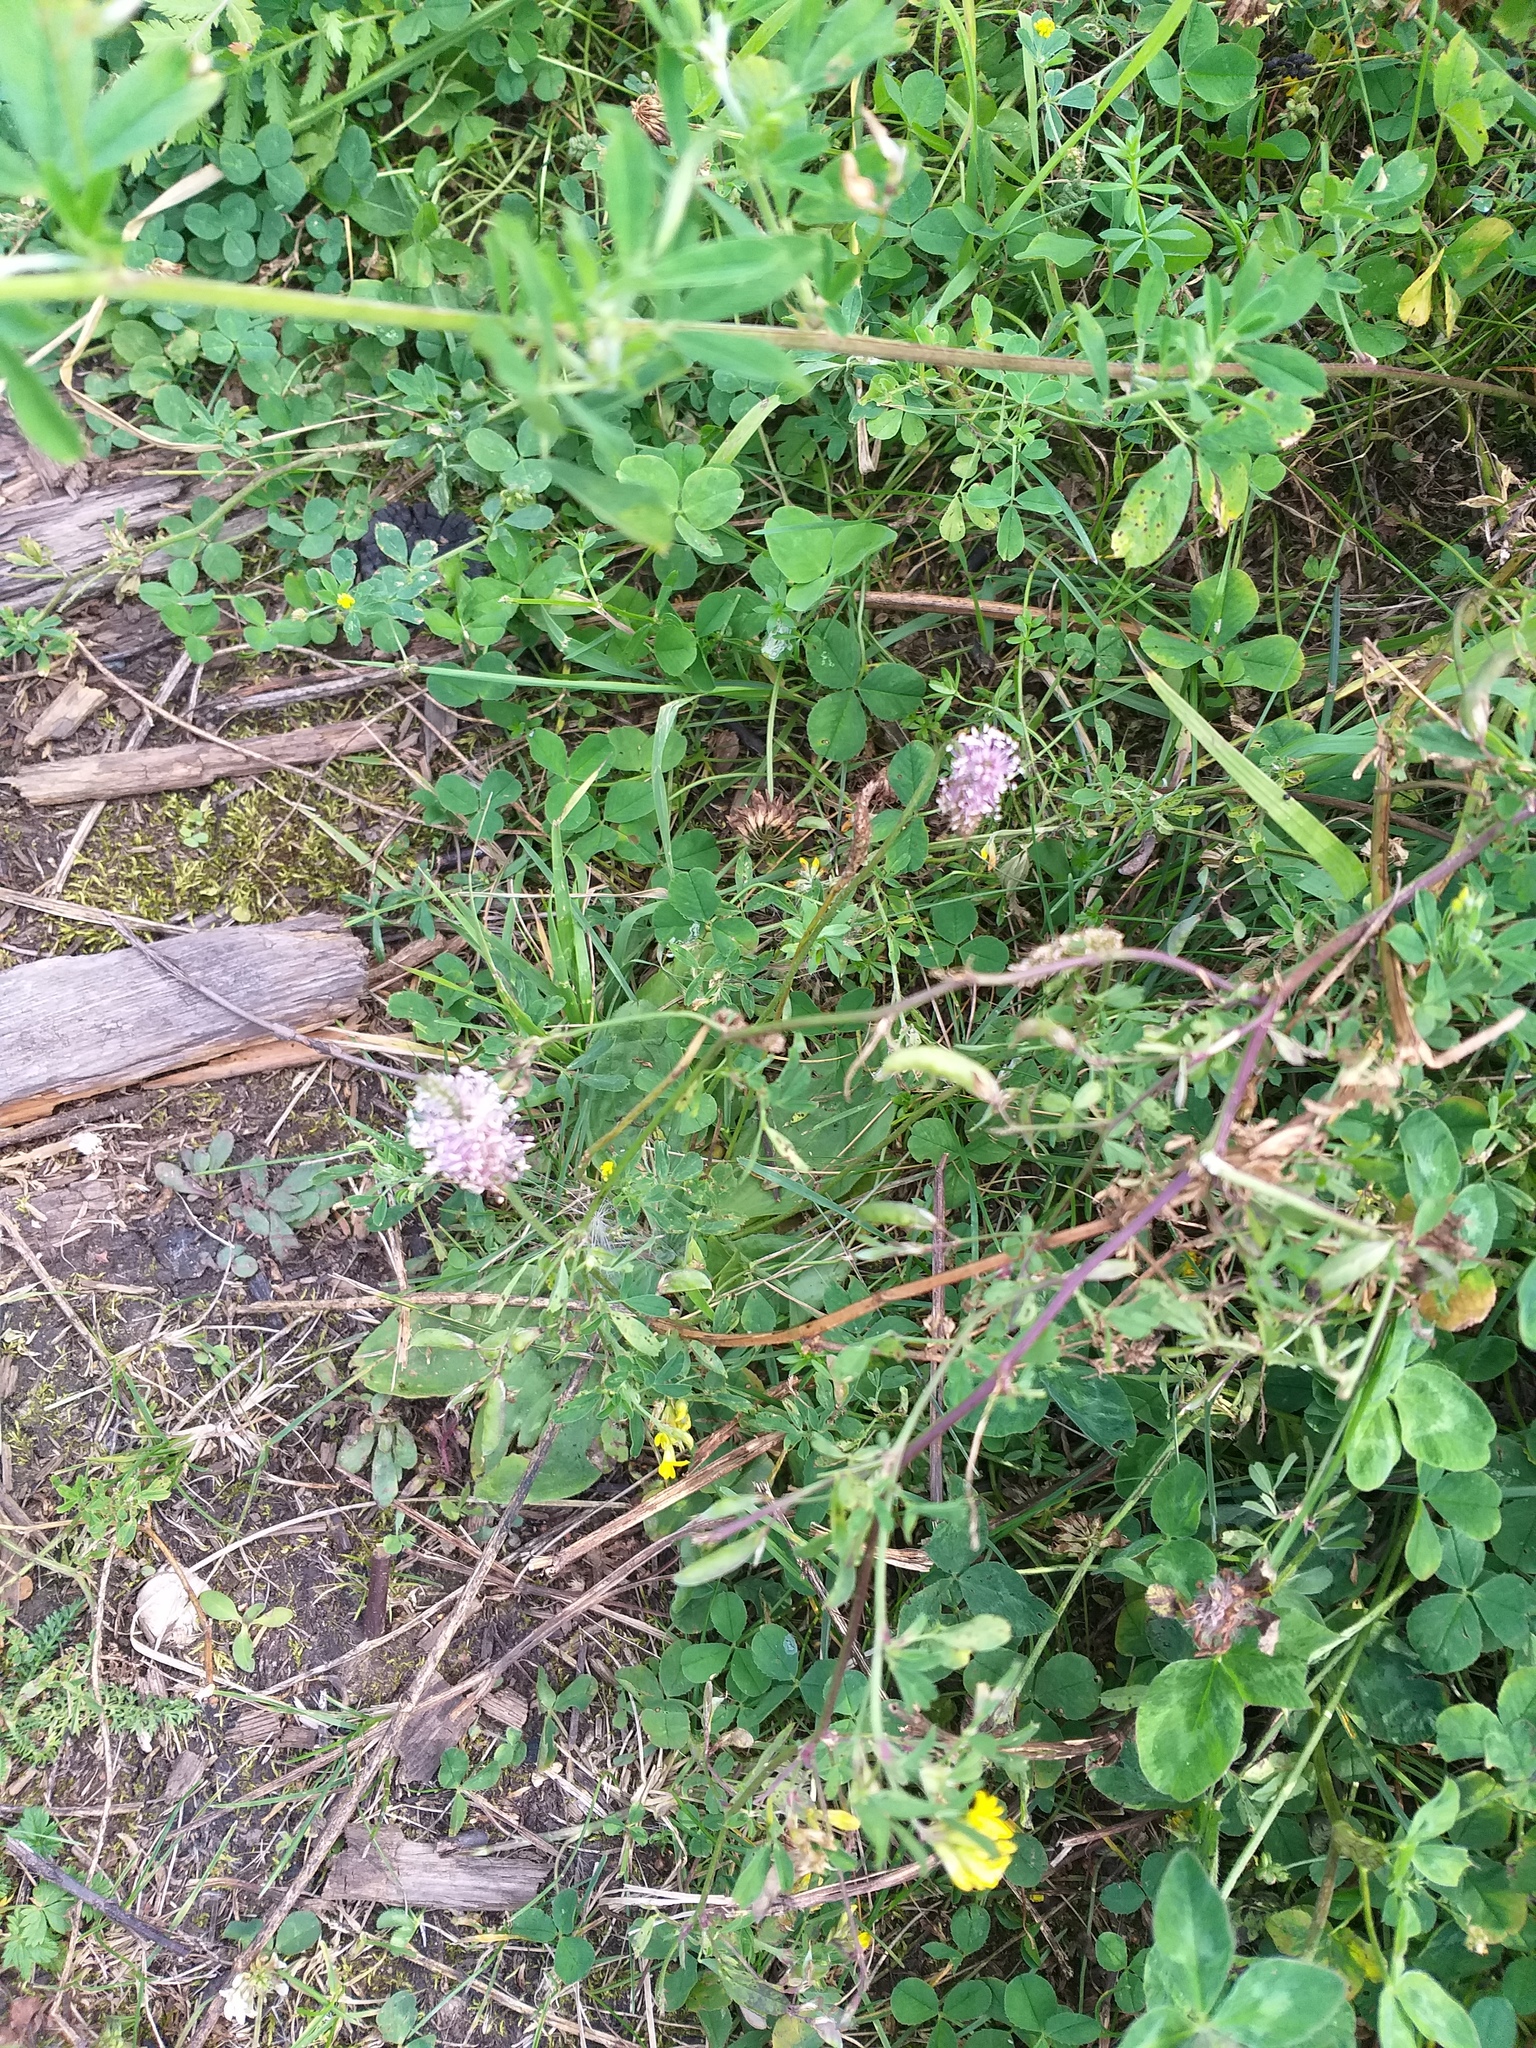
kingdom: Plantae
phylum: Tracheophyta
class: Magnoliopsida
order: Lamiales
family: Plantaginaceae
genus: Plantago
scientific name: Plantago media
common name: Hoary plantain
